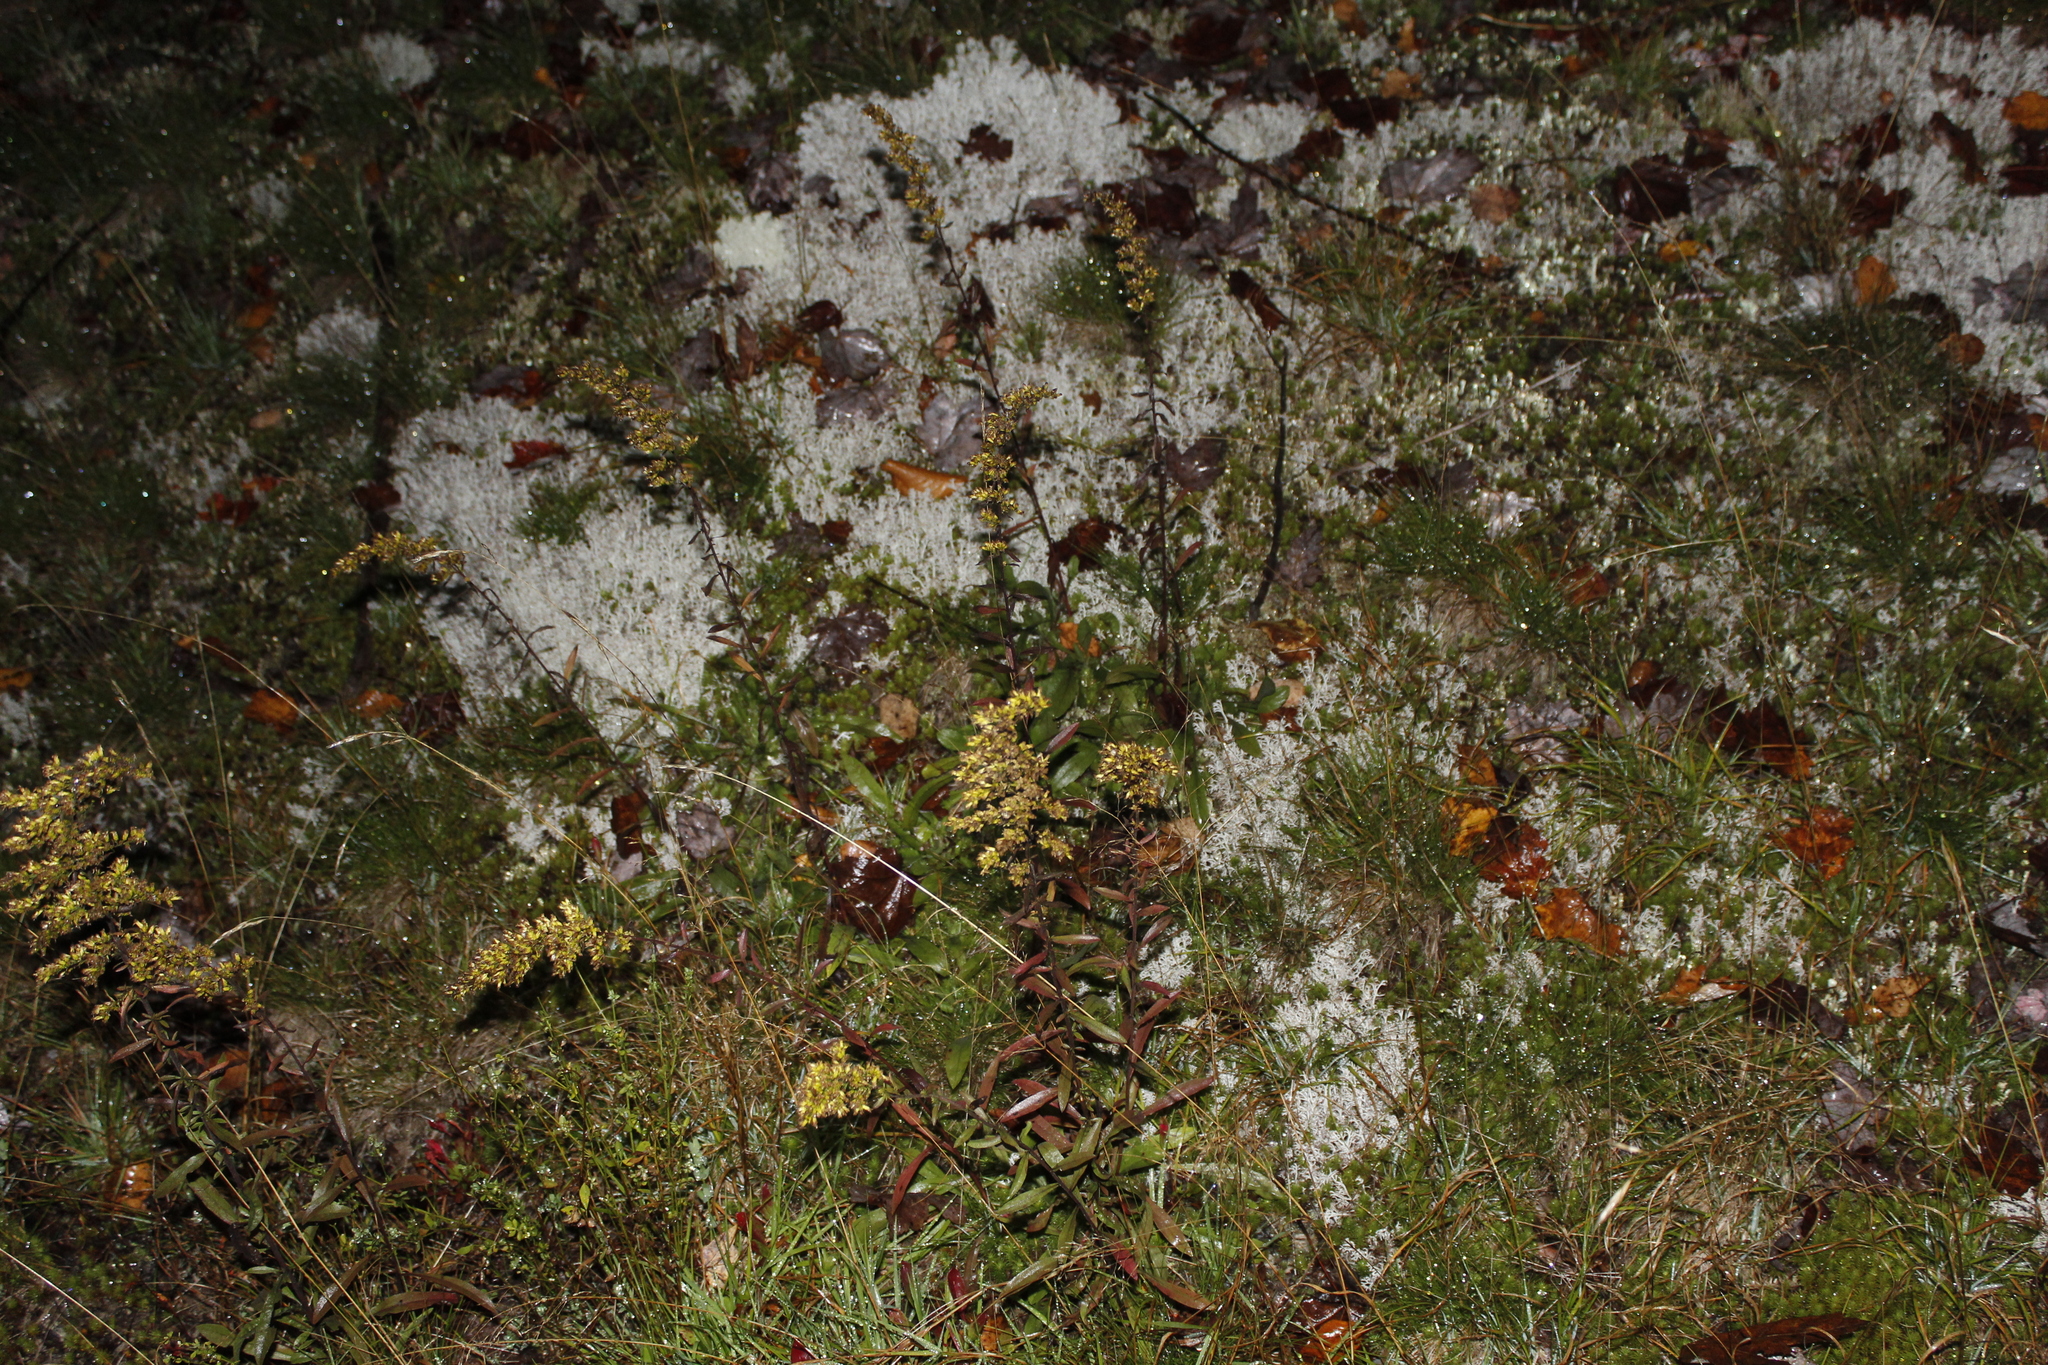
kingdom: Plantae
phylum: Tracheophyta
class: Magnoliopsida
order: Asterales
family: Asteraceae
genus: Solidago
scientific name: Solidago nemoralis
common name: Grey goldenrod
